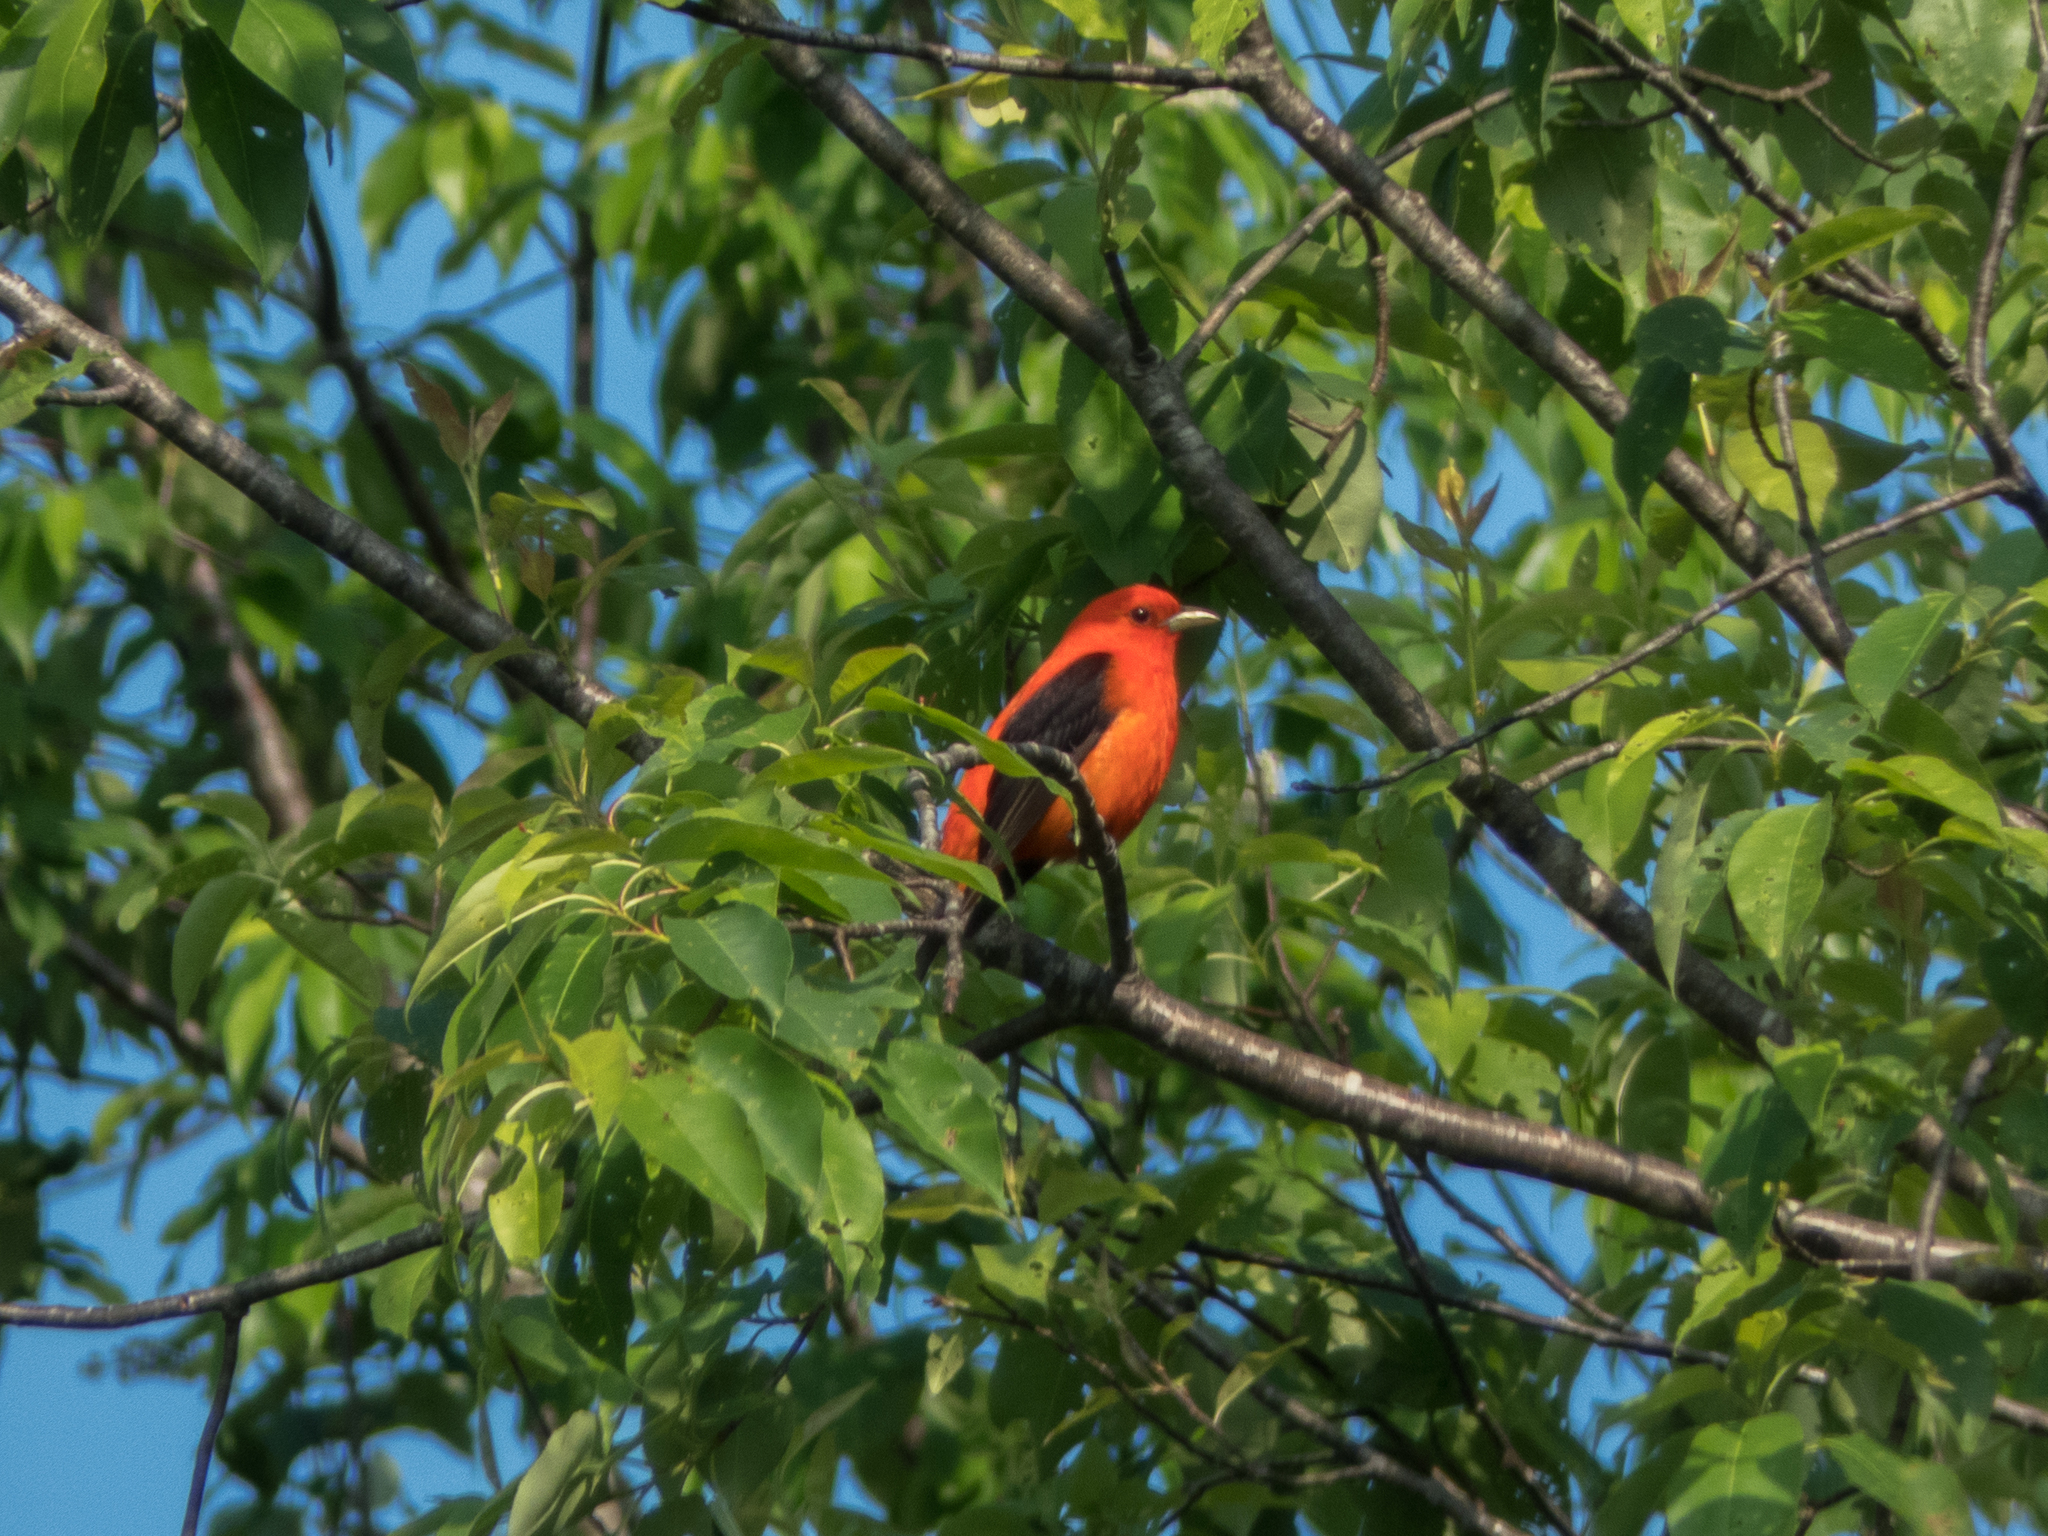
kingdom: Animalia
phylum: Chordata
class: Aves
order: Passeriformes
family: Cardinalidae
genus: Piranga
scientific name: Piranga olivacea
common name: Scarlet tanager
